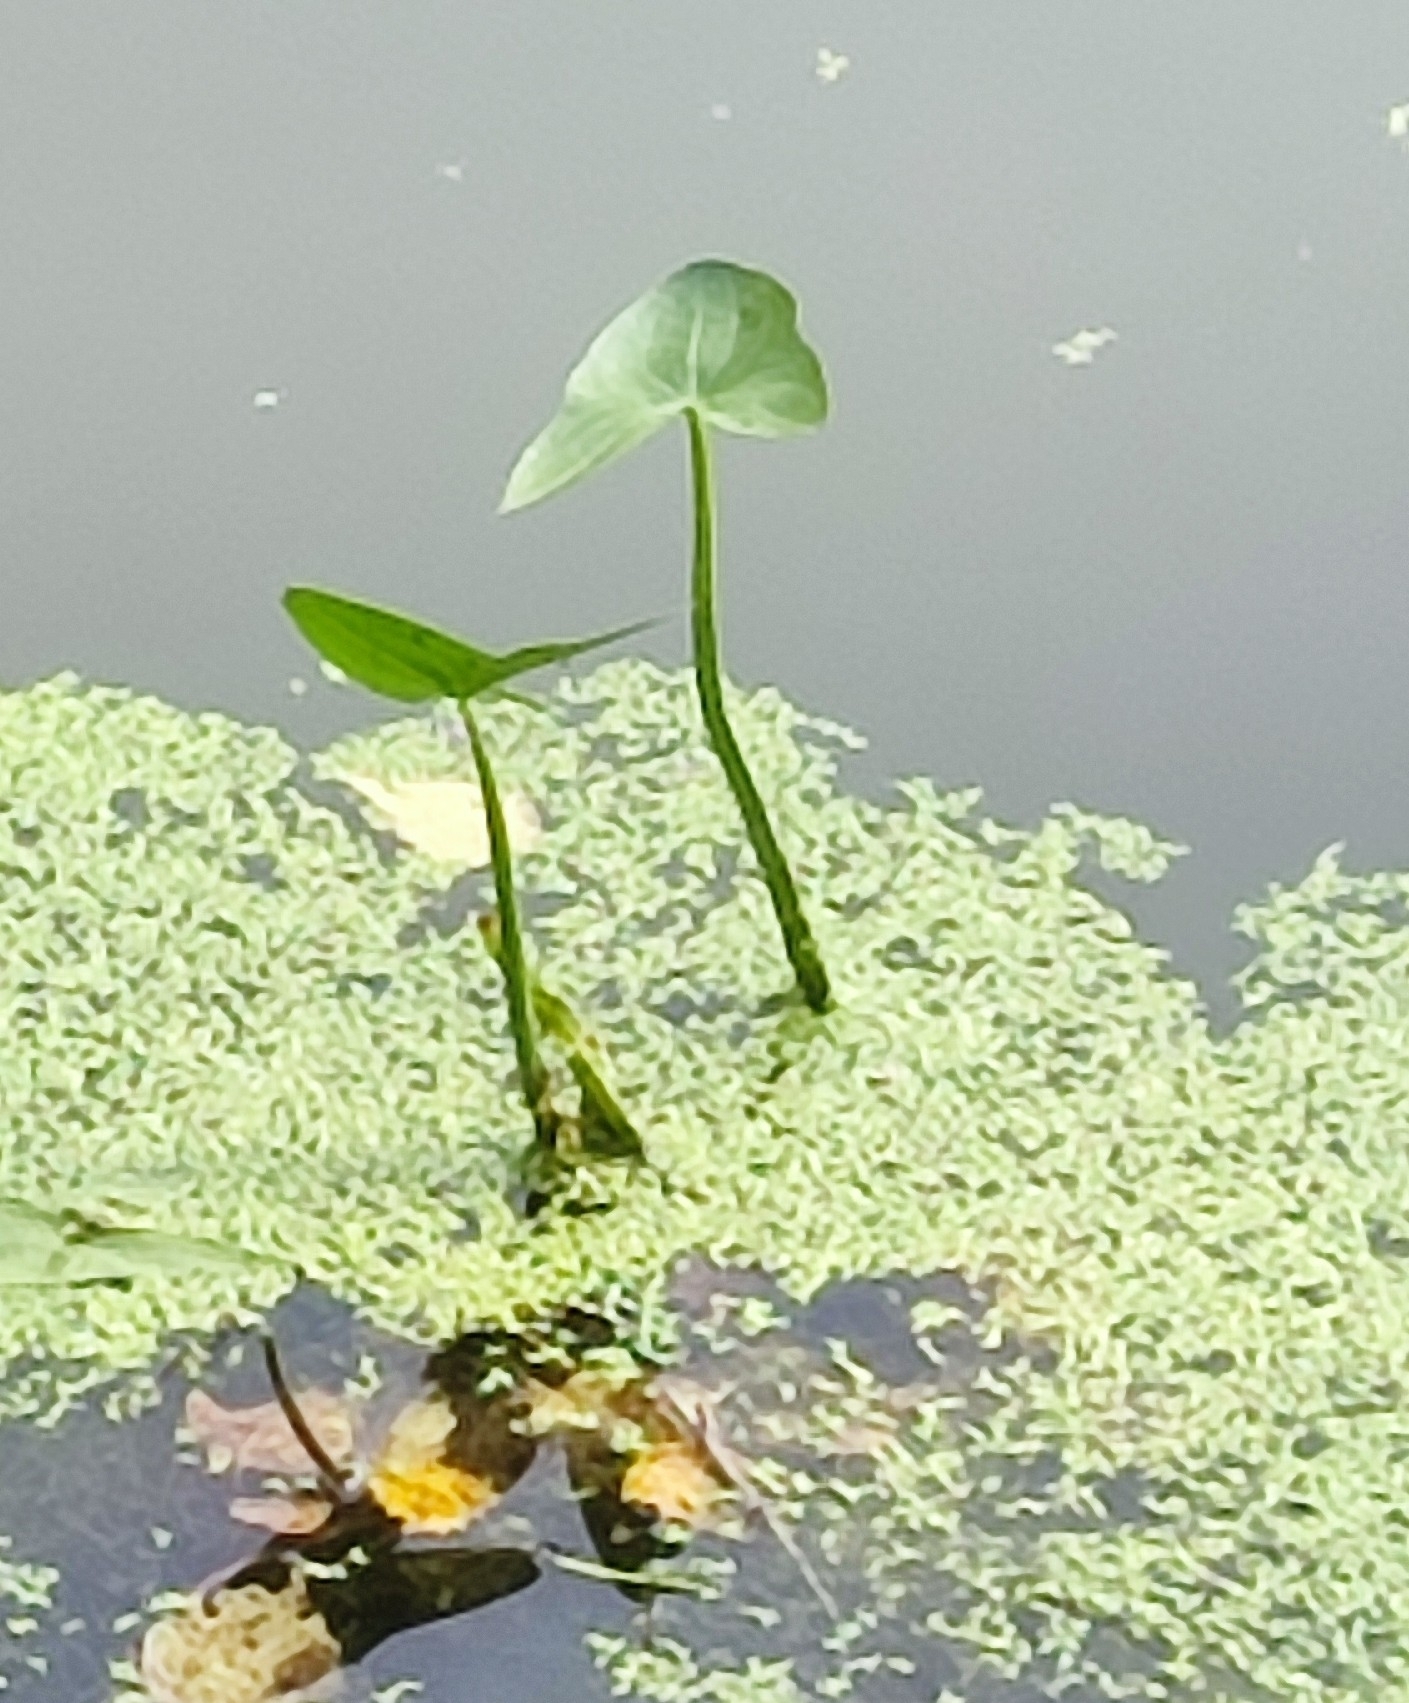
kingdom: Plantae
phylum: Tracheophyta
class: Liliopsida
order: Alismatales
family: Alismataceae
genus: Sagittaria
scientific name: Sagittaria sagittifolia
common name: Arrowhead
